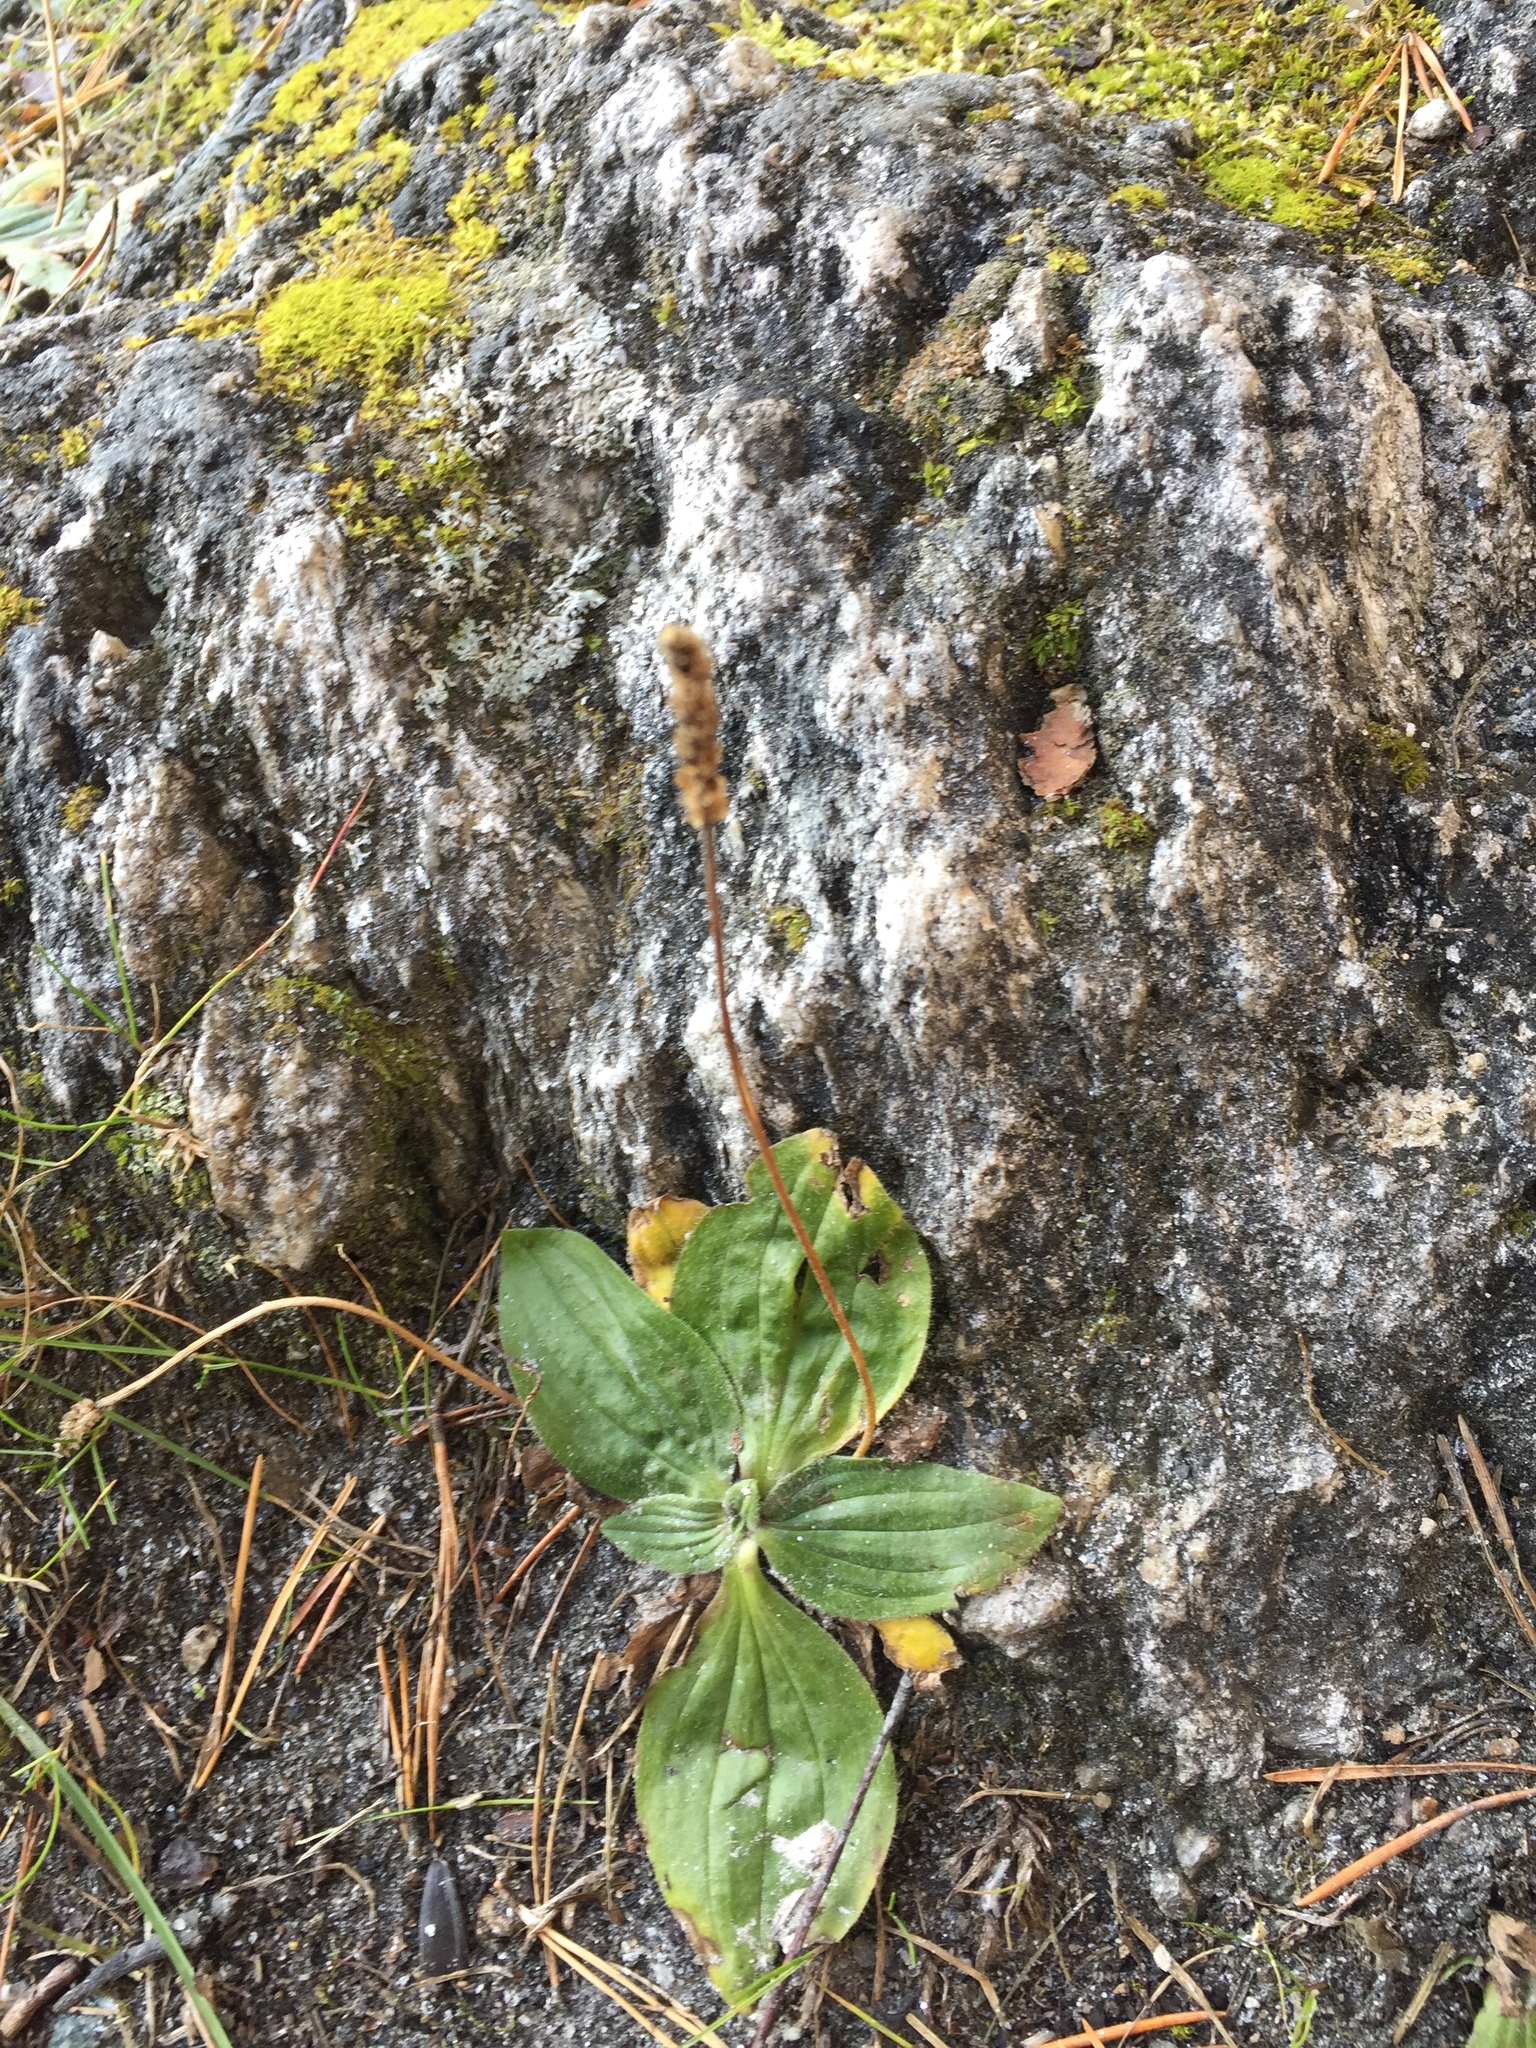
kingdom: Plantae
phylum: Tracheophyta
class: Magnoliopsida
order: Lamiales
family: Plantaginaceae
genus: Plantago
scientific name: Plantago media
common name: Hoary plantain
